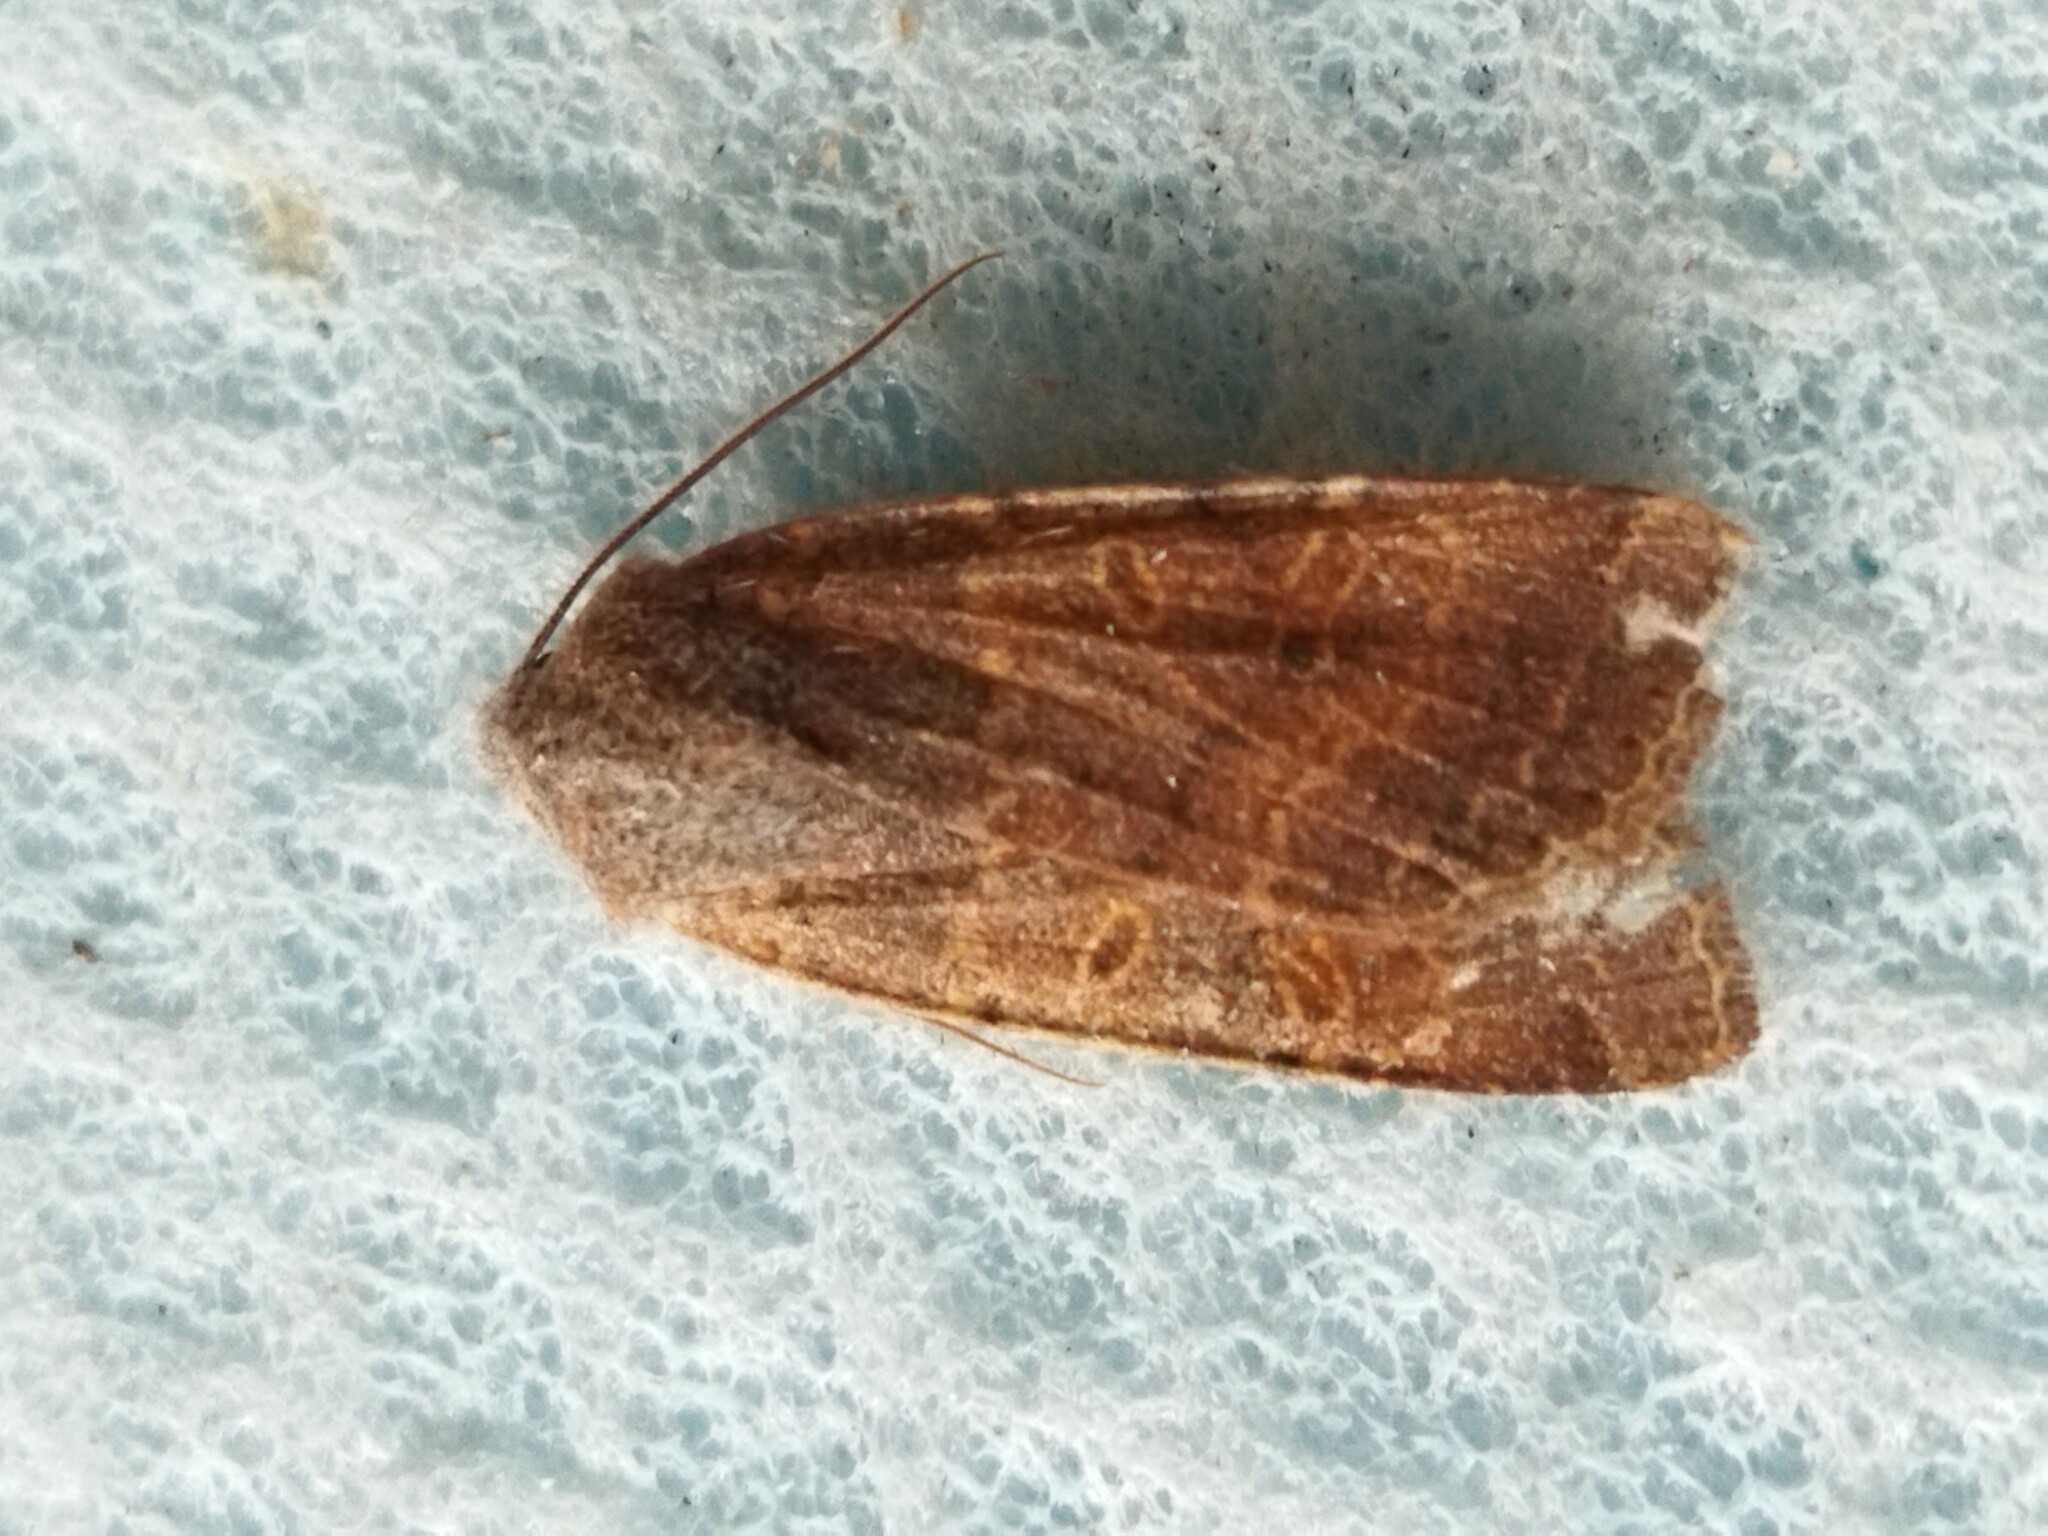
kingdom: Animalia
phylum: Arthropoda
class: Insecta
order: Lepidoptera
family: Noctuidae
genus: Agrochola
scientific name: Agrochola lychnidis
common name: Beaded chestnut
